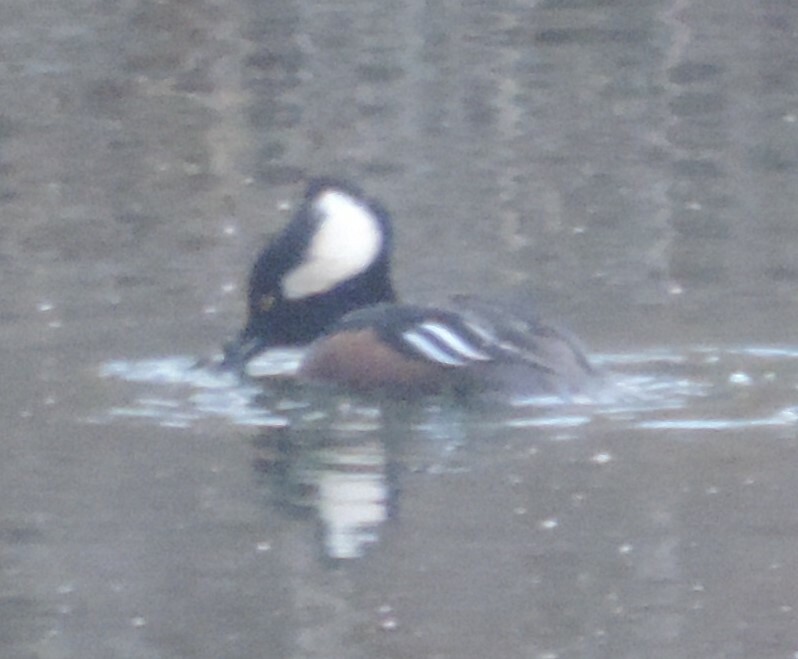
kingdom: Animalia
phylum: Chordata
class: Aves
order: Anseriformes
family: Anatidae
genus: Lophodytes
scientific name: Lophodytes cucullatus
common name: Hooded merganser
